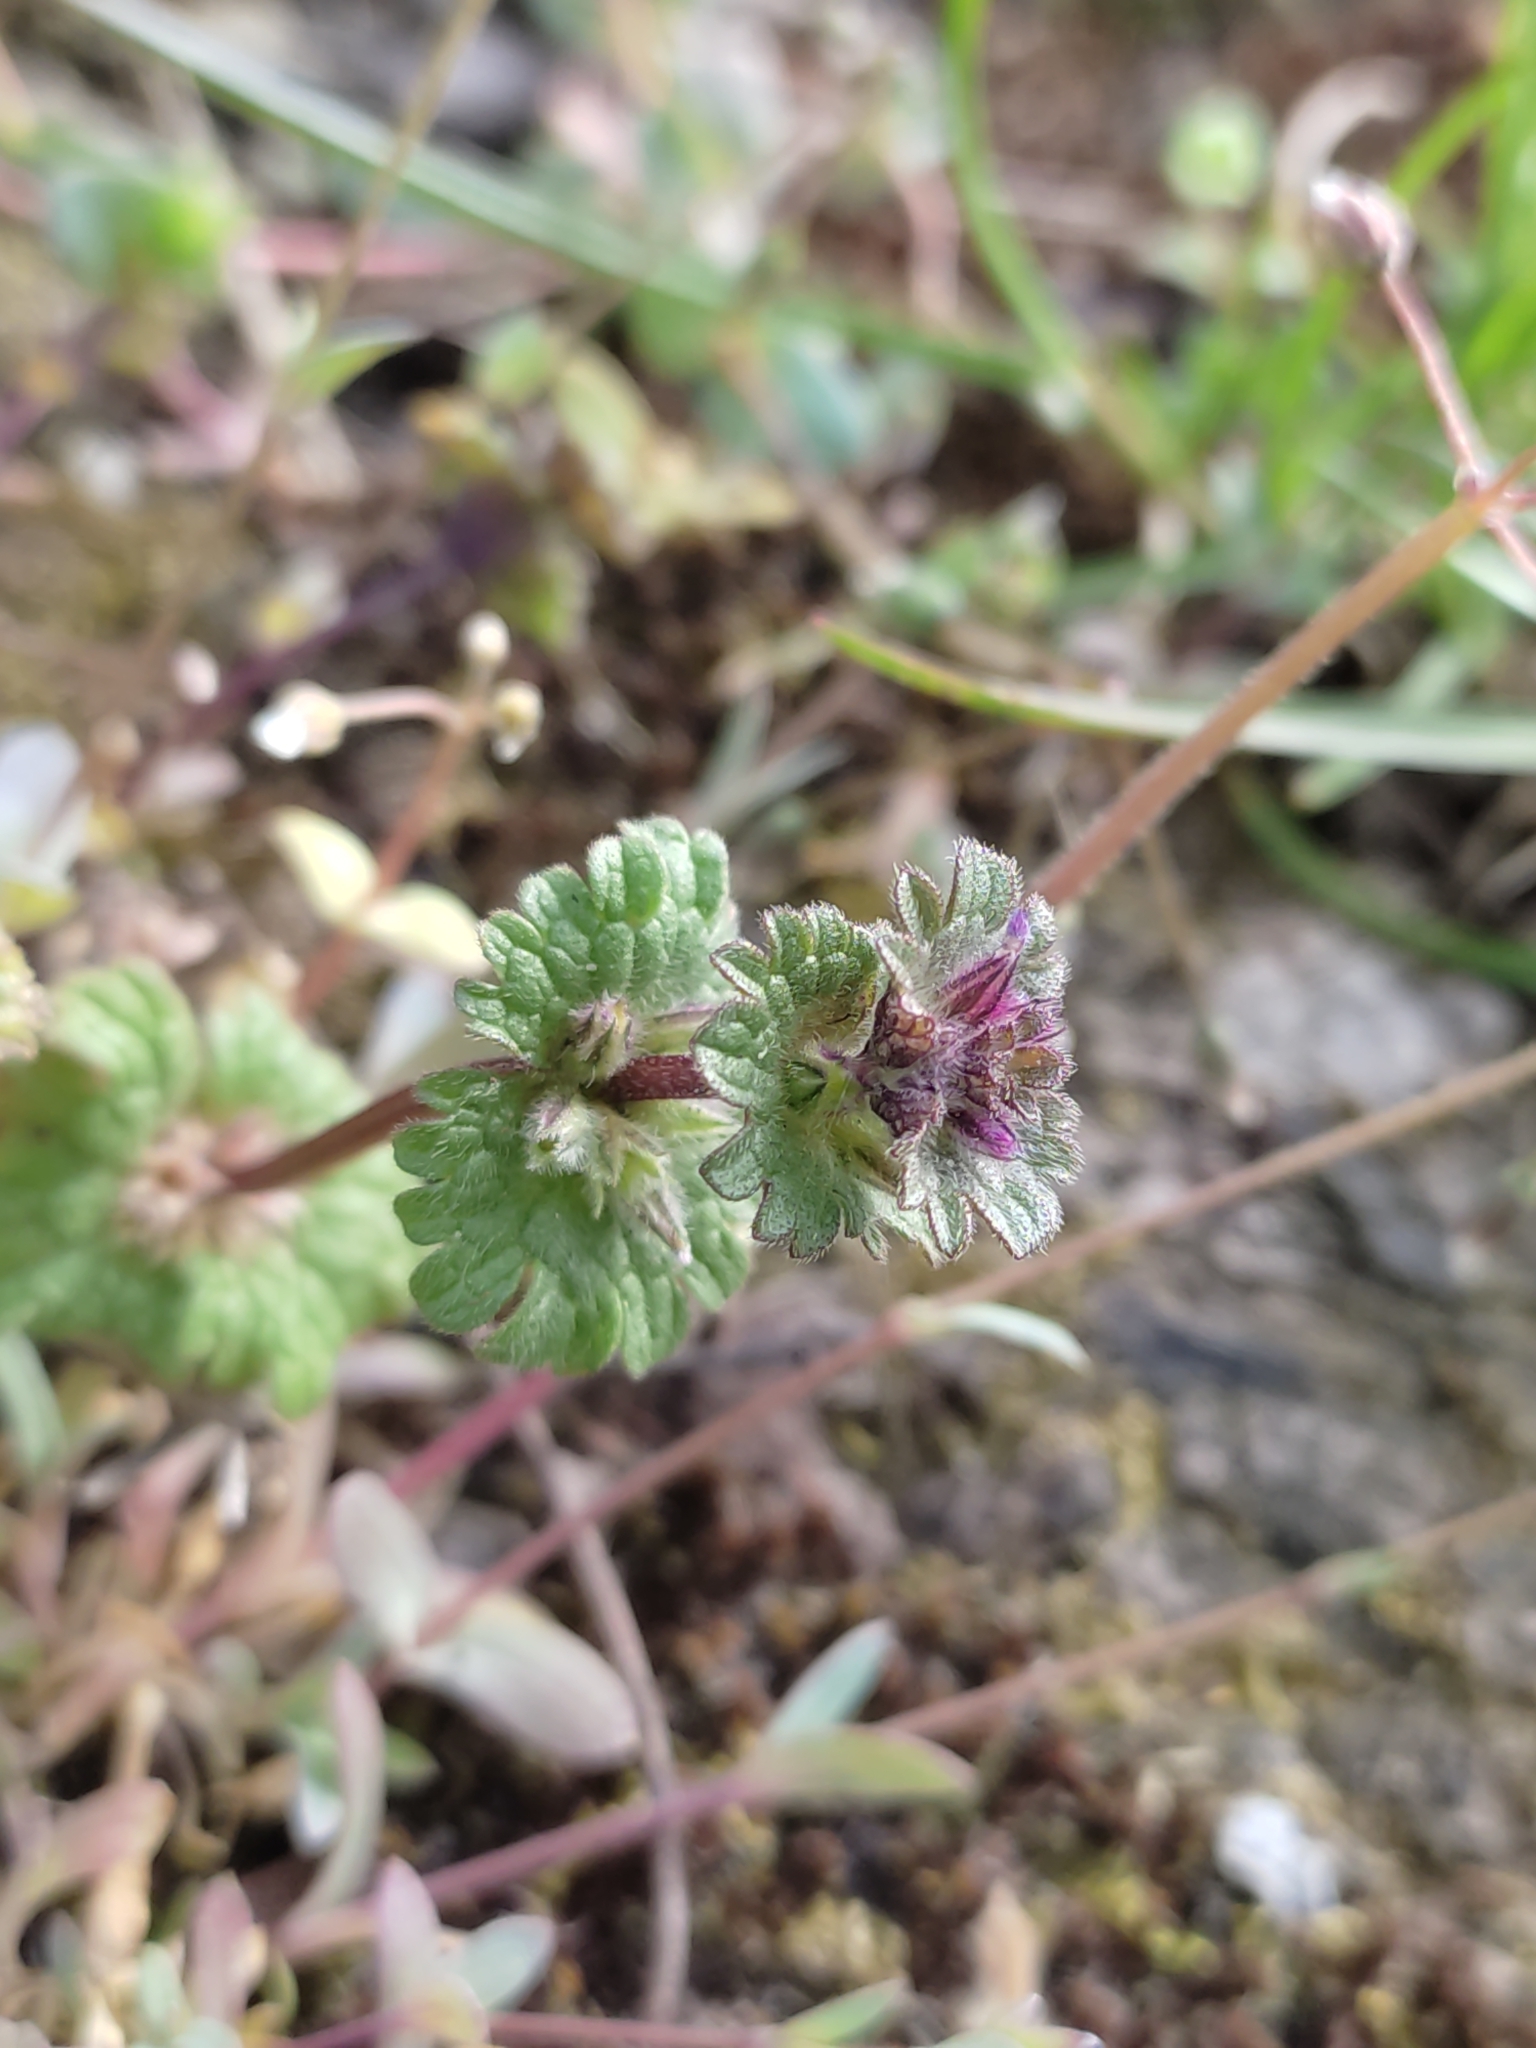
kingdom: Plantae
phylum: Tracheophyta
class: Magnoliopsida
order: Lamiales
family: Lamiaceae
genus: Lamium
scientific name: Lamium amplexicaule
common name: Henbit dead-nettle
